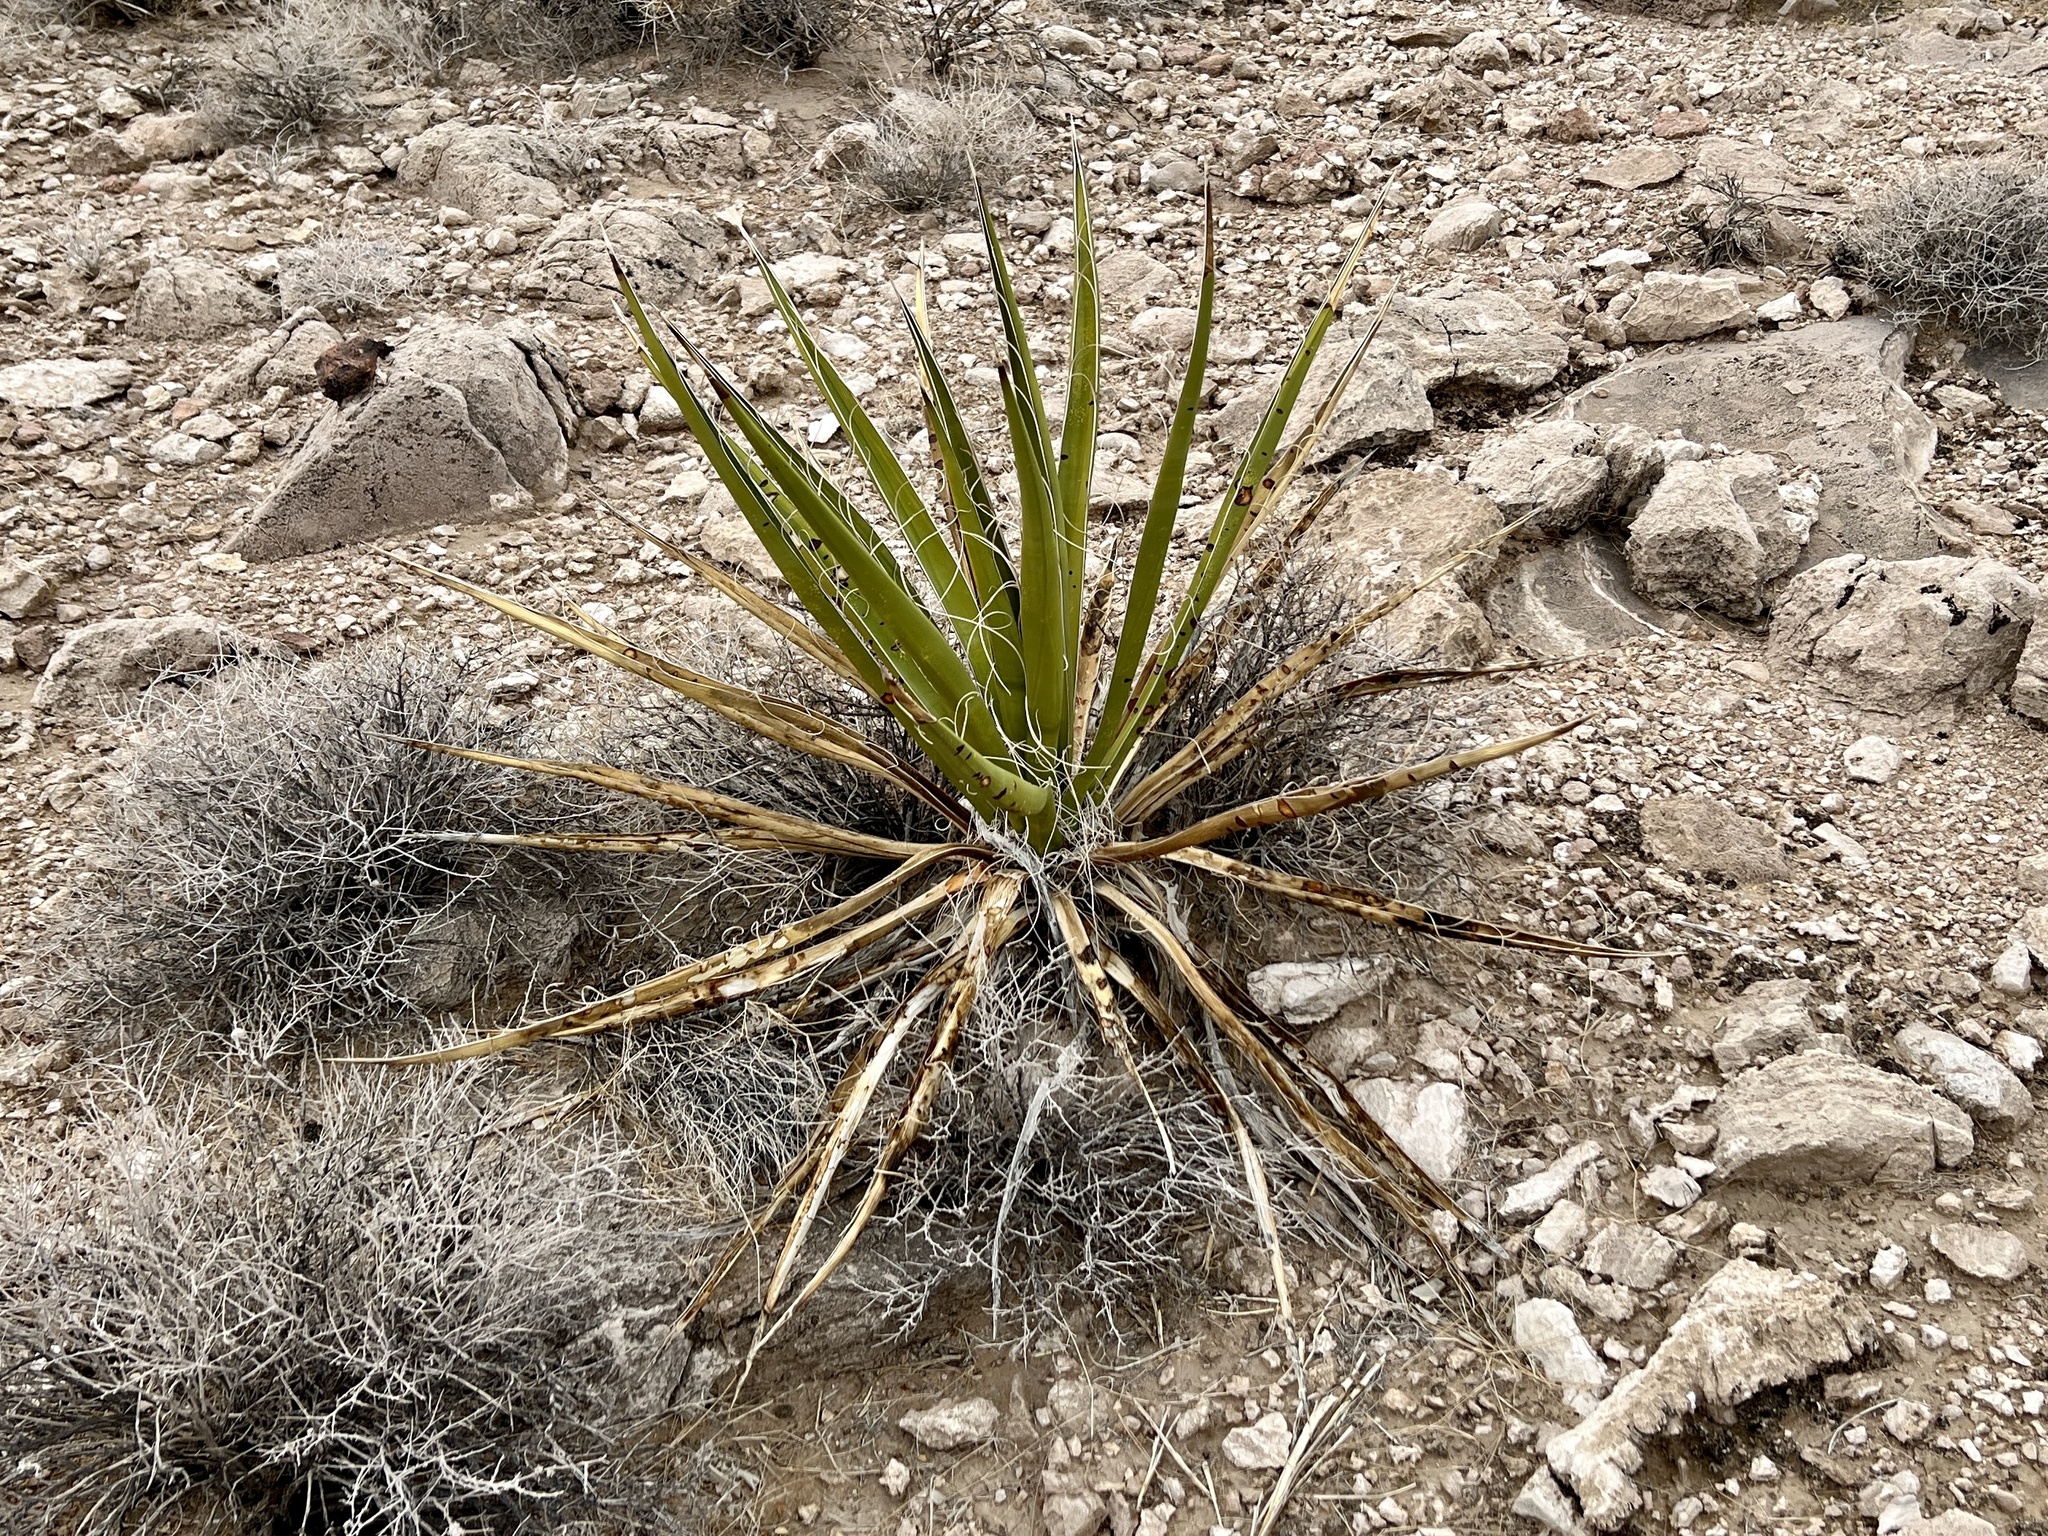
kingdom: Plantae
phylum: Tracheophyta
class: Liliopsida
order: Asparagales
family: Asparagaceae
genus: Yucca
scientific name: Yucca schidigera
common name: Mojave yucca
